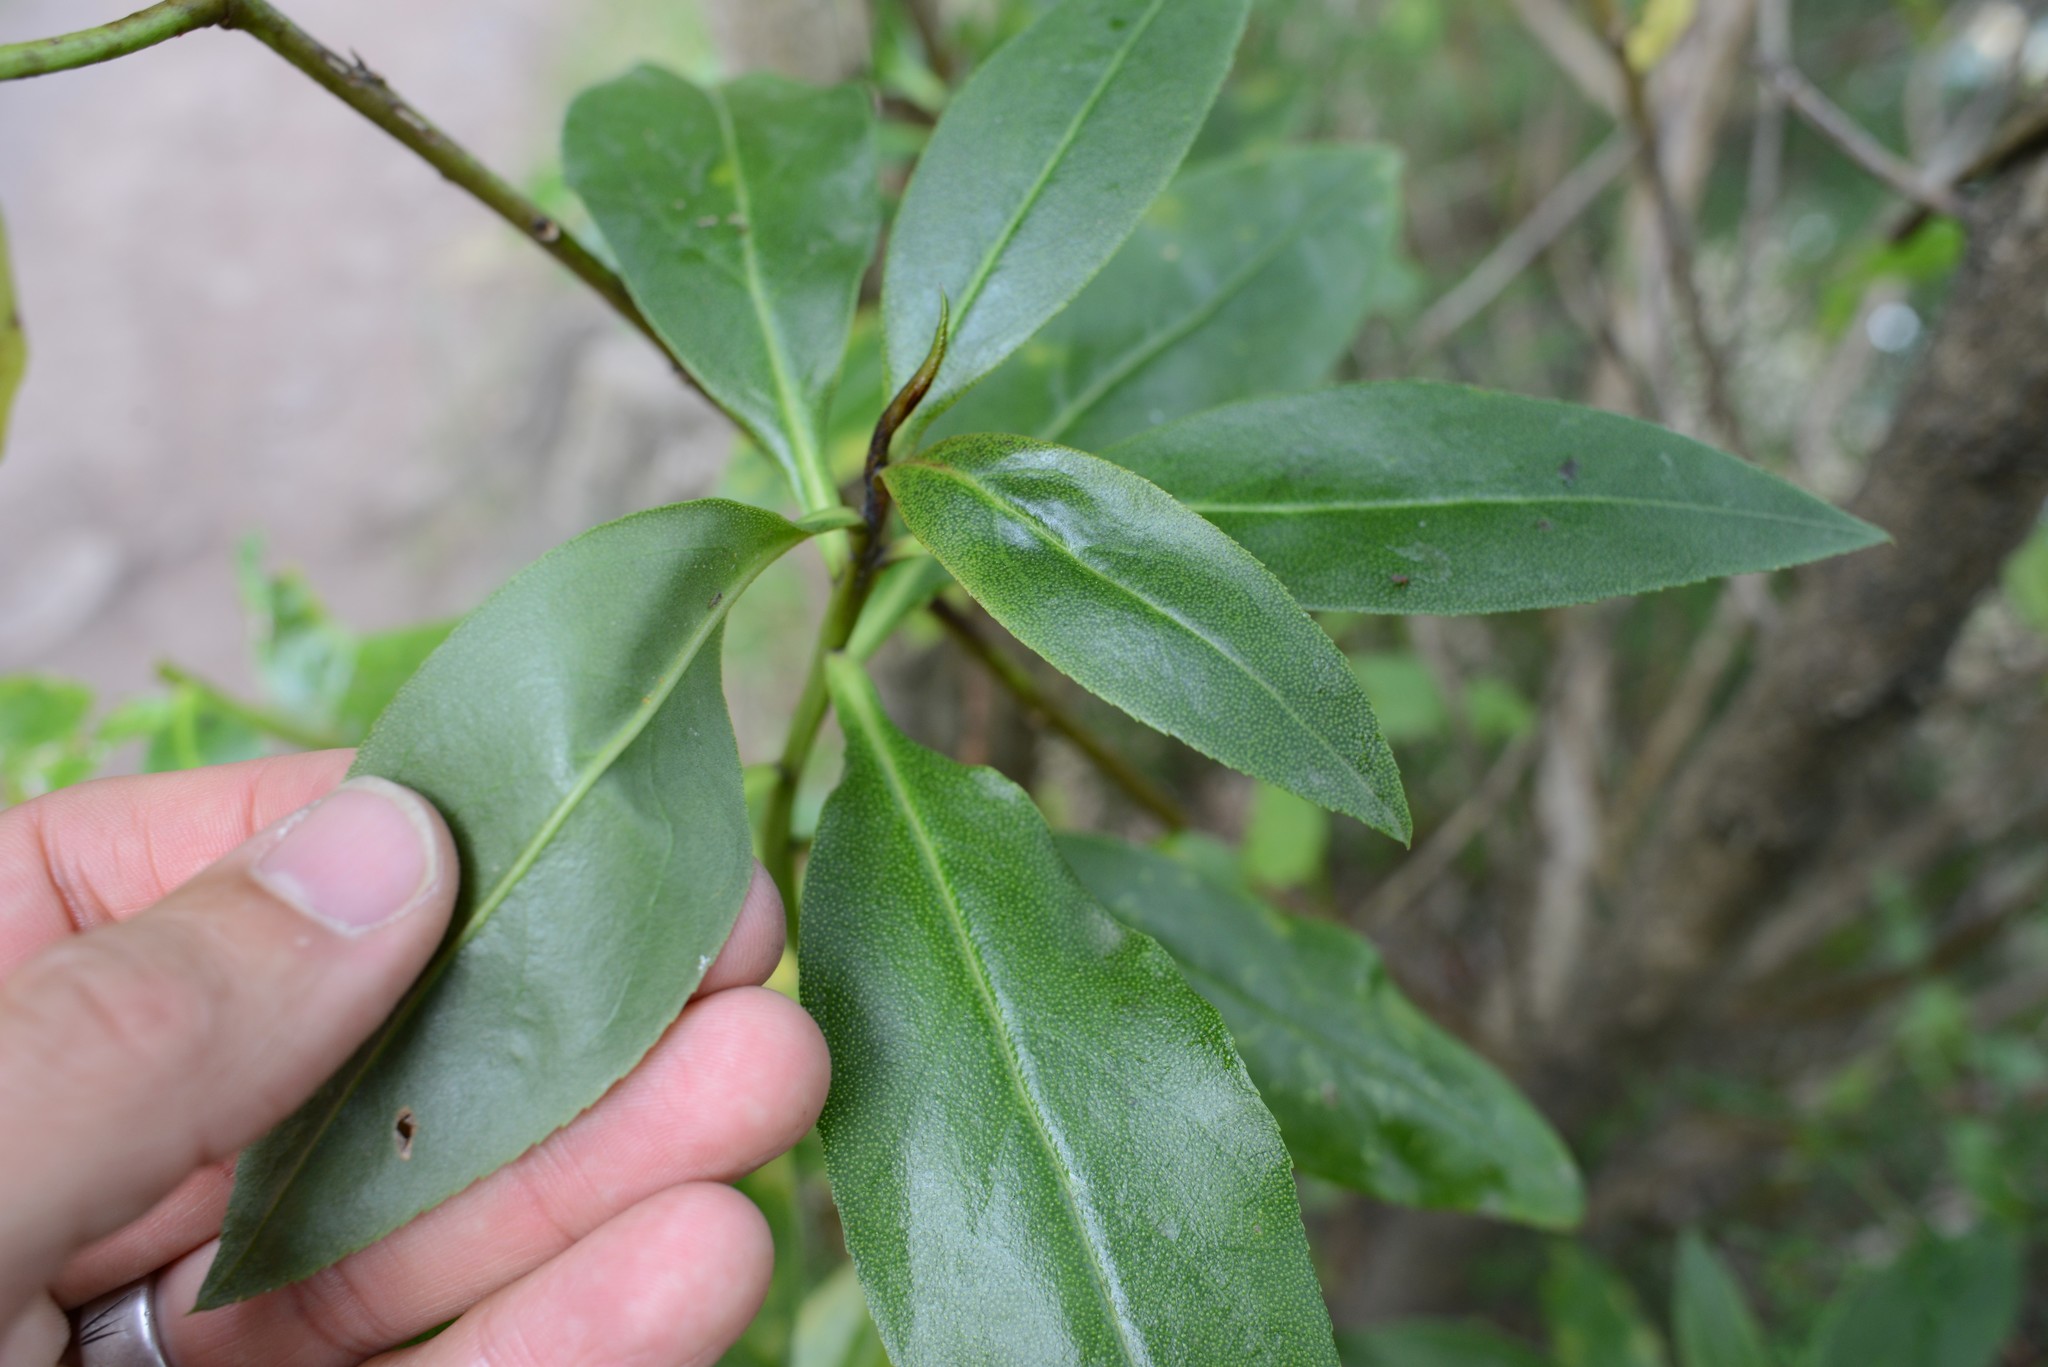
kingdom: Plantae
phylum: Tracheophyta
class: Magnoliopsida
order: Lamiales
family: Scrophulariaceae
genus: Myoporum
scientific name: Myoporum laetum
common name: Ngaio tree
